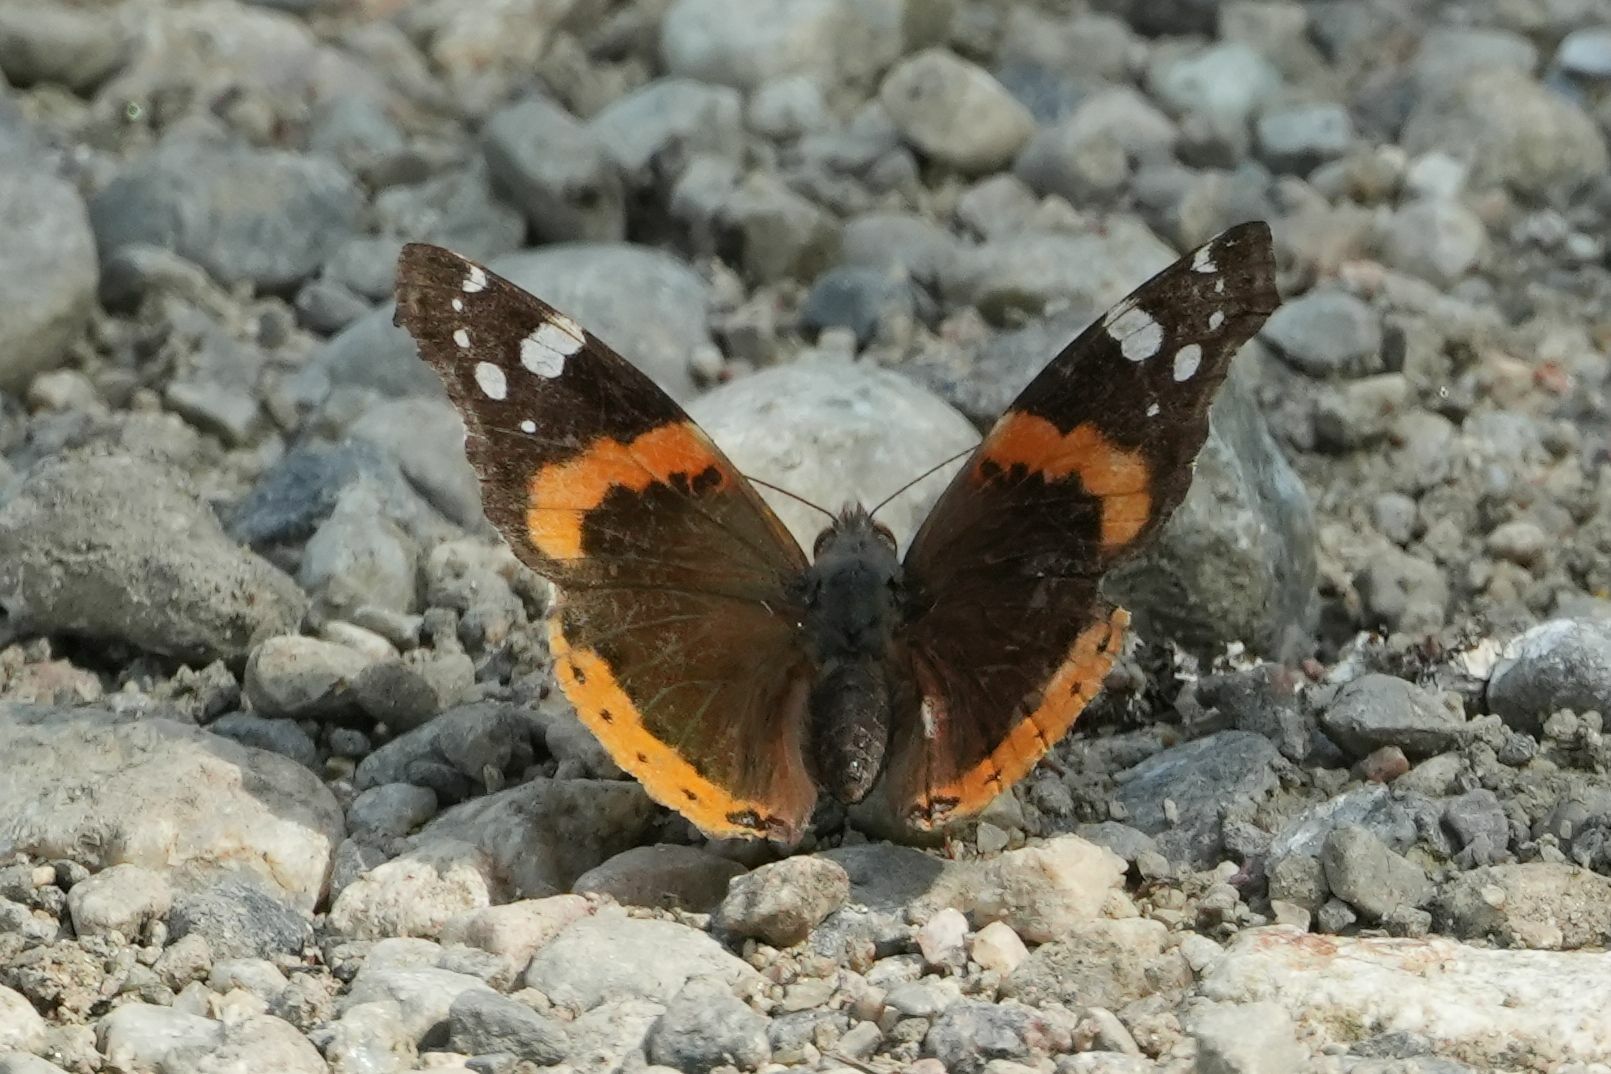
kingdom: Animalia
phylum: Arthropoda
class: Insecta
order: Lepidoptera
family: Nymphalidae
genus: Vanessa
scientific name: Vanessa atalanta
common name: Red admiral
